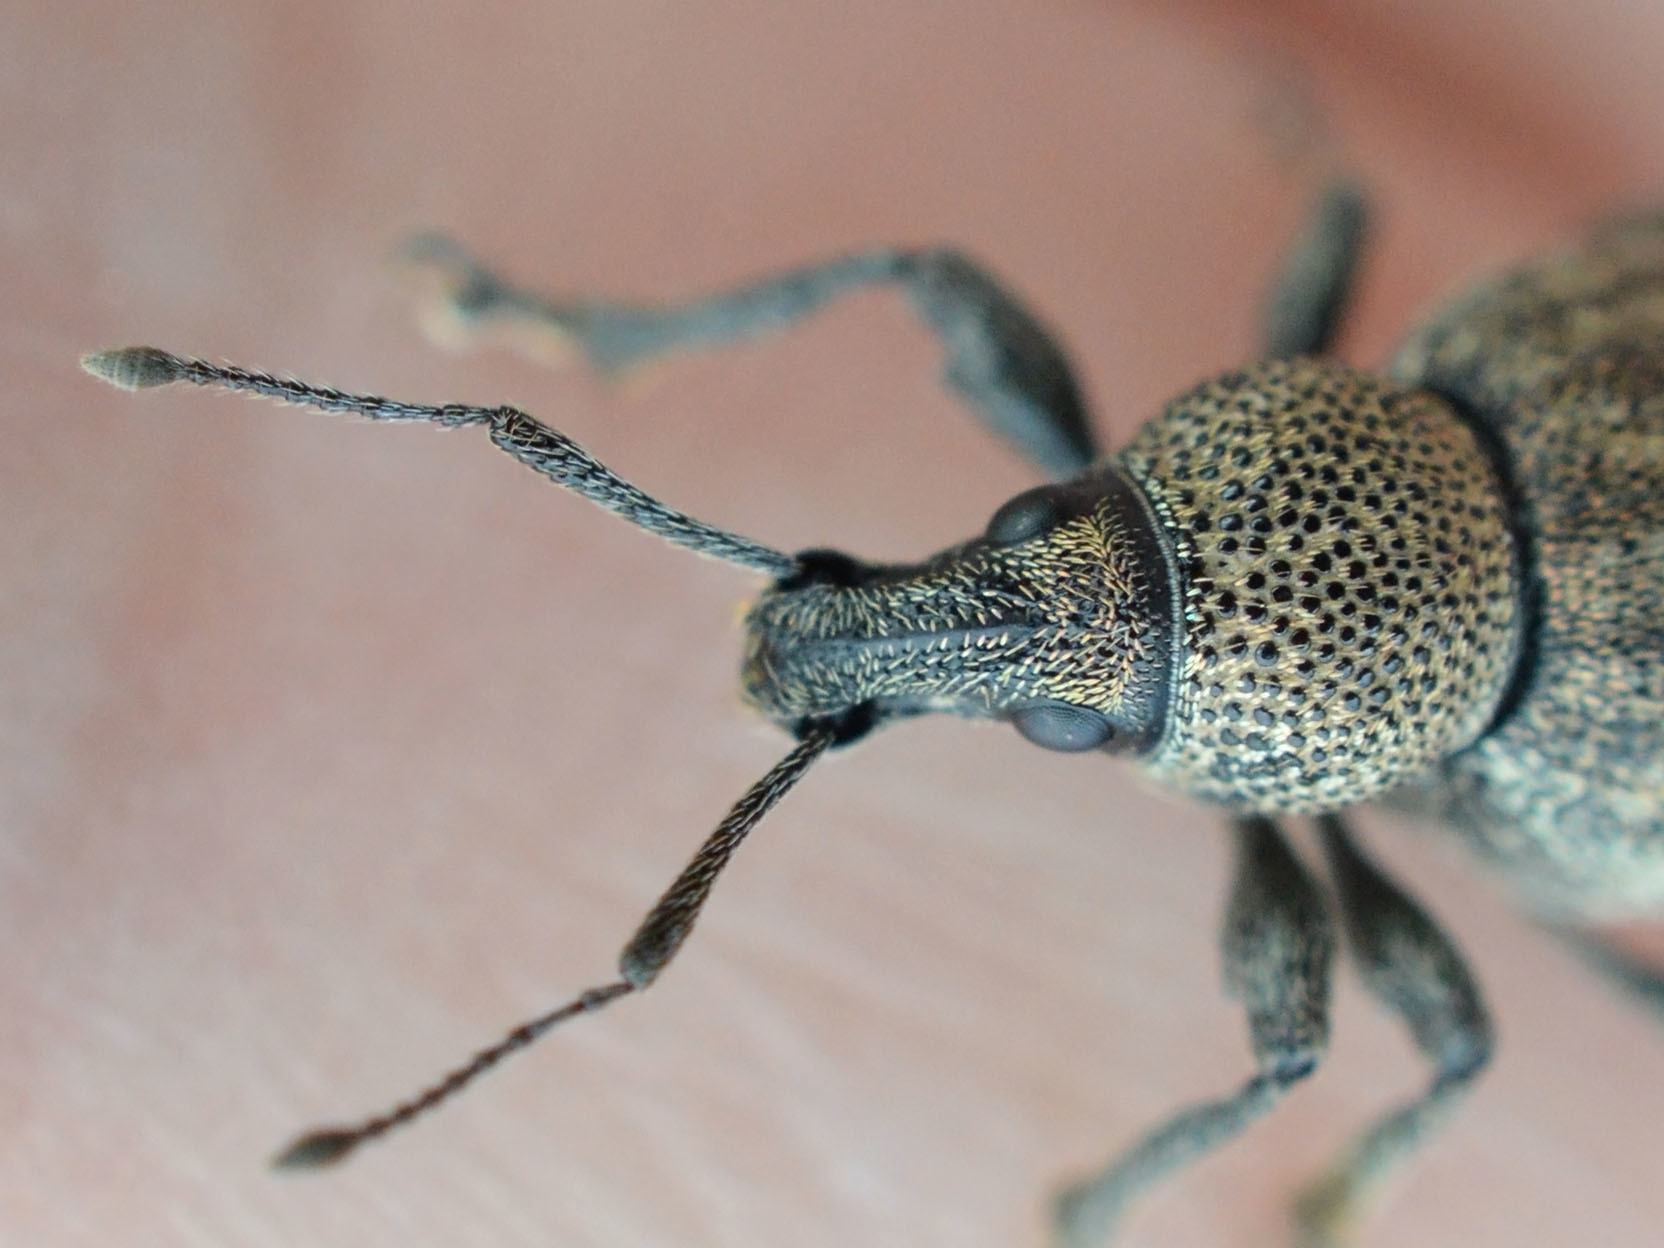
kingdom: Animalia
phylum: Arthropoda
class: Insecta
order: Coleoptera
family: Curculionidae
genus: Otiorhynchus
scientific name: Otiorhynchus ligustici
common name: Weevil
